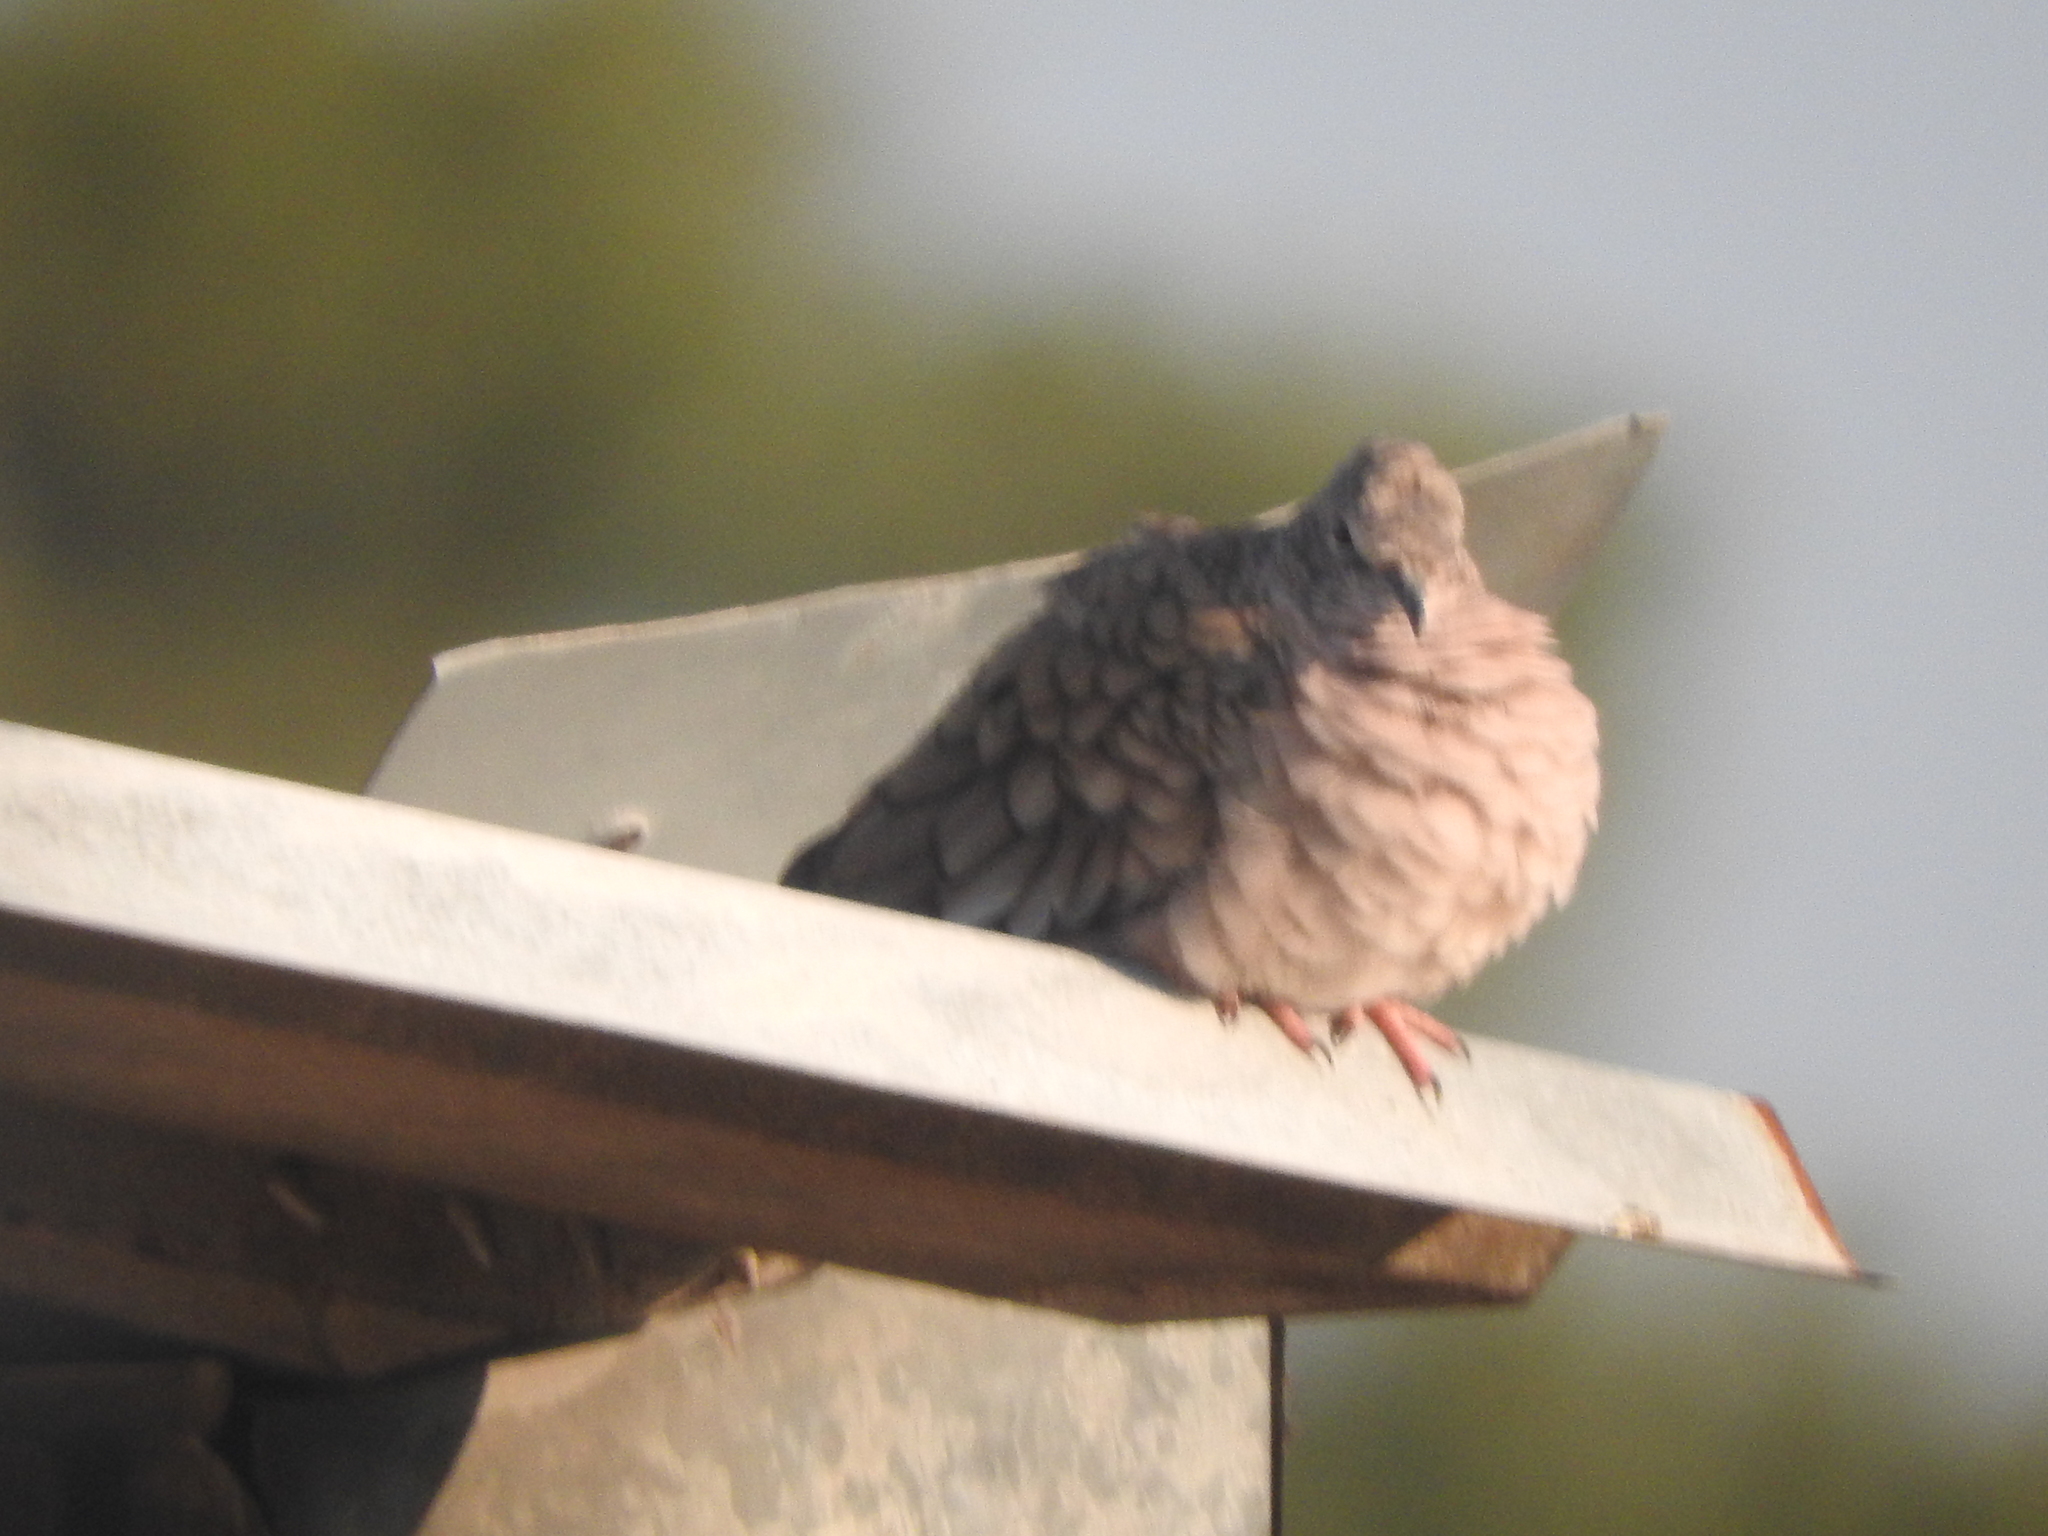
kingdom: Animalia
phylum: Chordata
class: Aves
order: Columbiformes
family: Columbidae
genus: Columbina
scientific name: Columbina inca
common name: Inca dove
